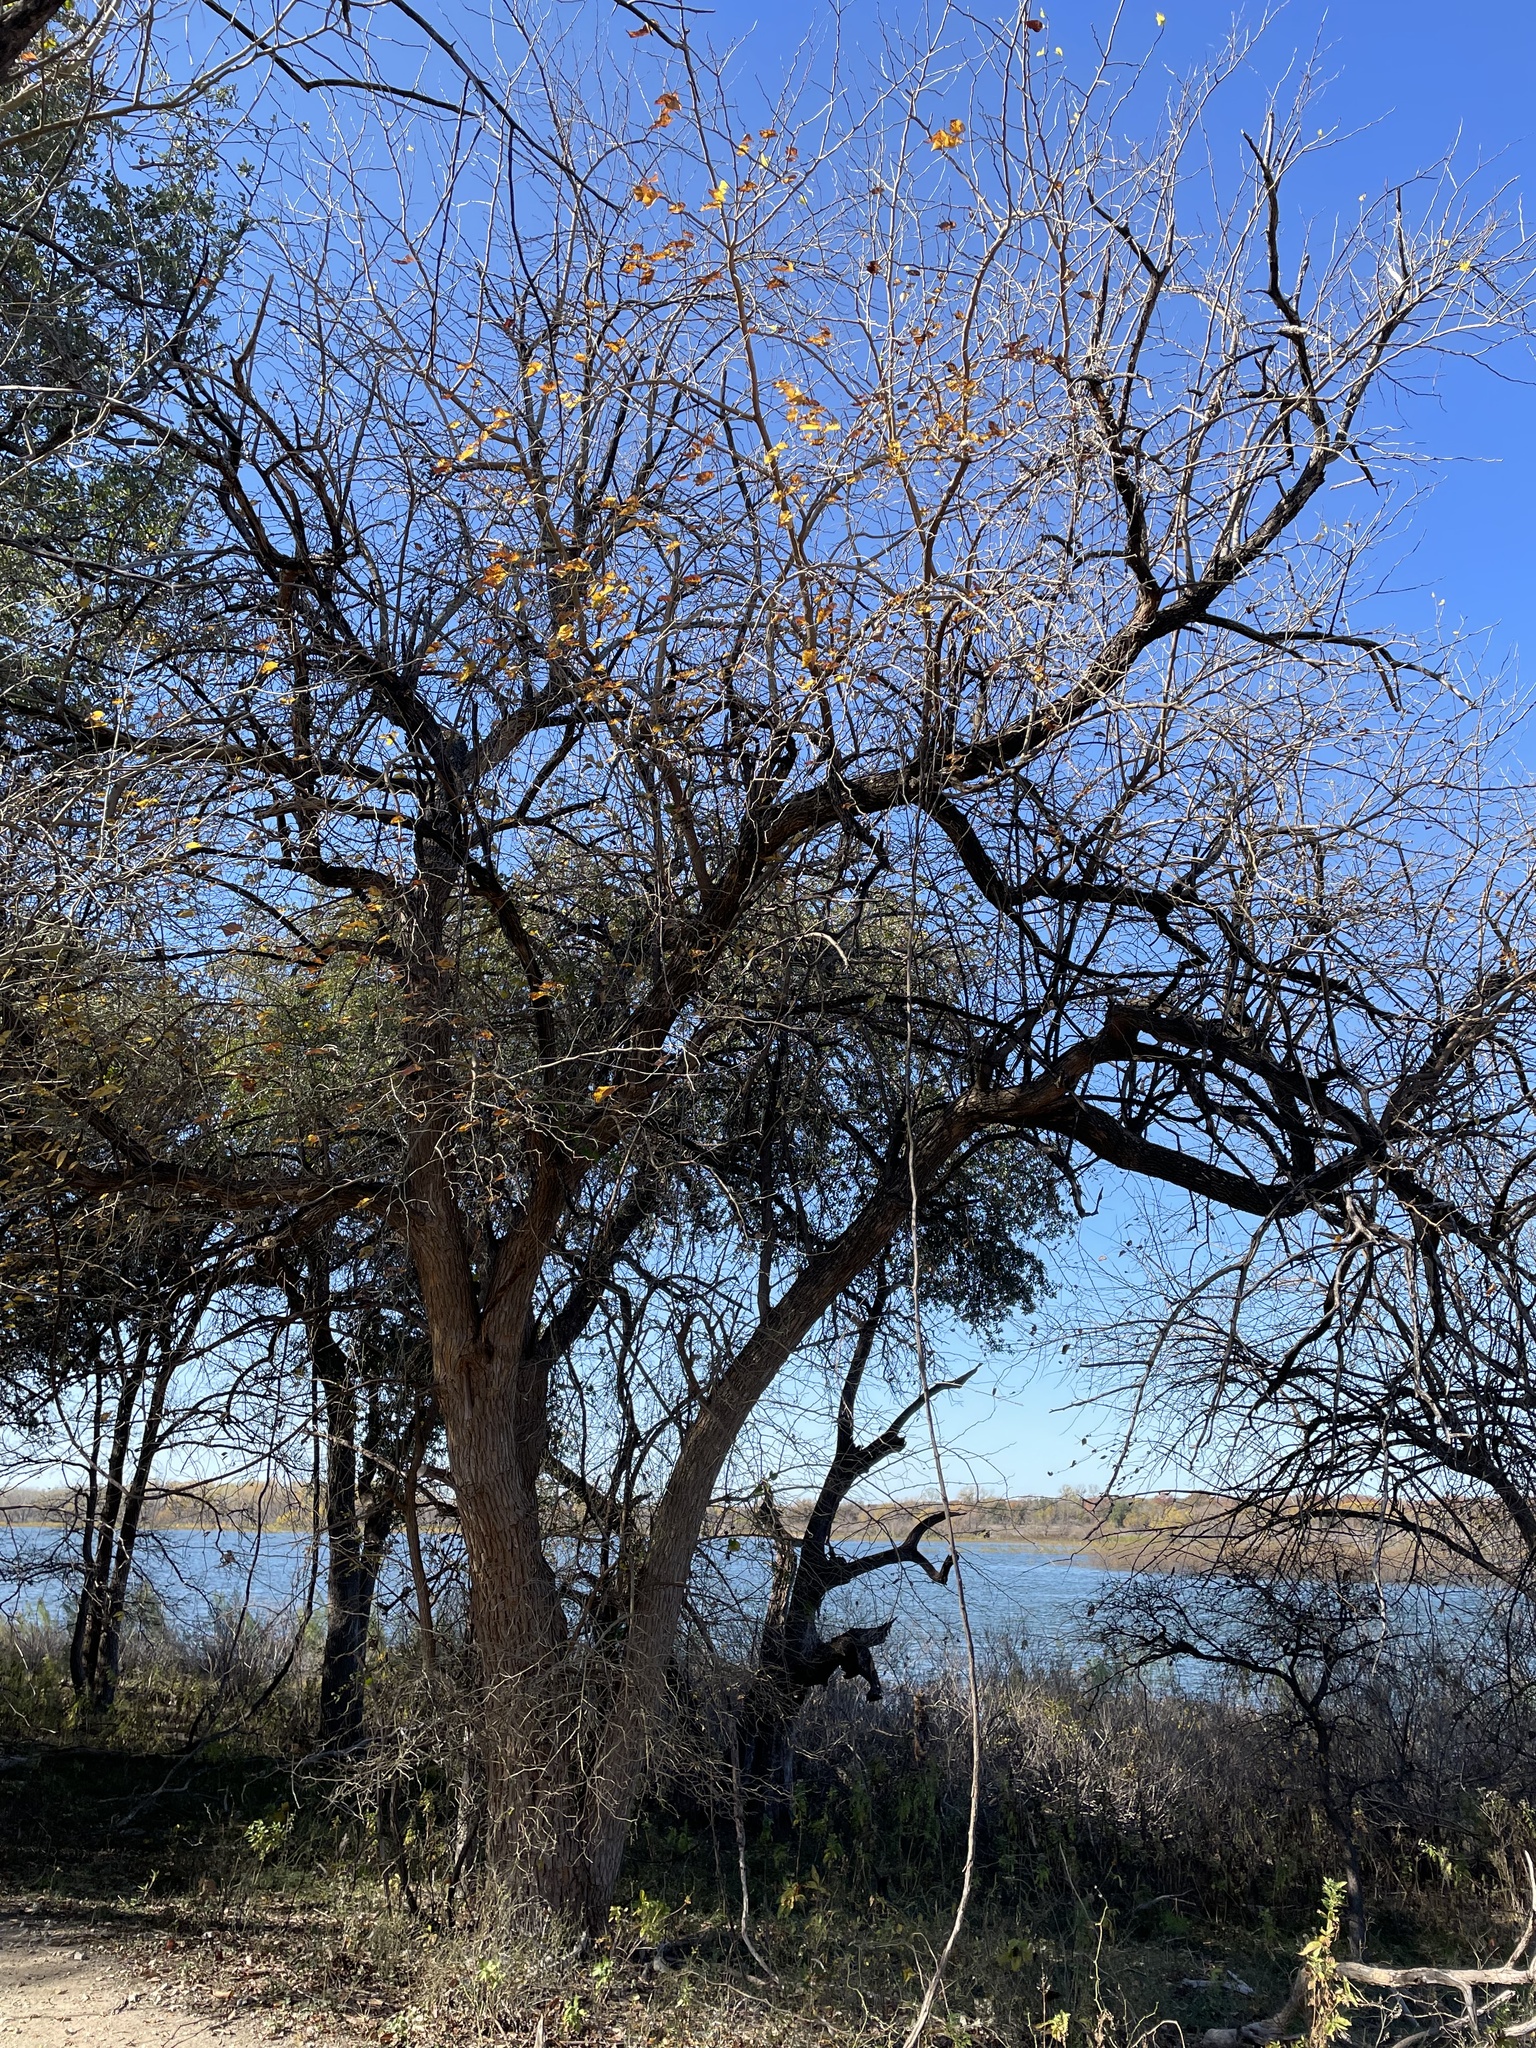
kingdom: Plantae
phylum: Tracheophyta
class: Magnoliopsida
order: Rosales
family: Moraceae
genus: Maclura
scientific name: Maclura pomifera
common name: Osage-orange
